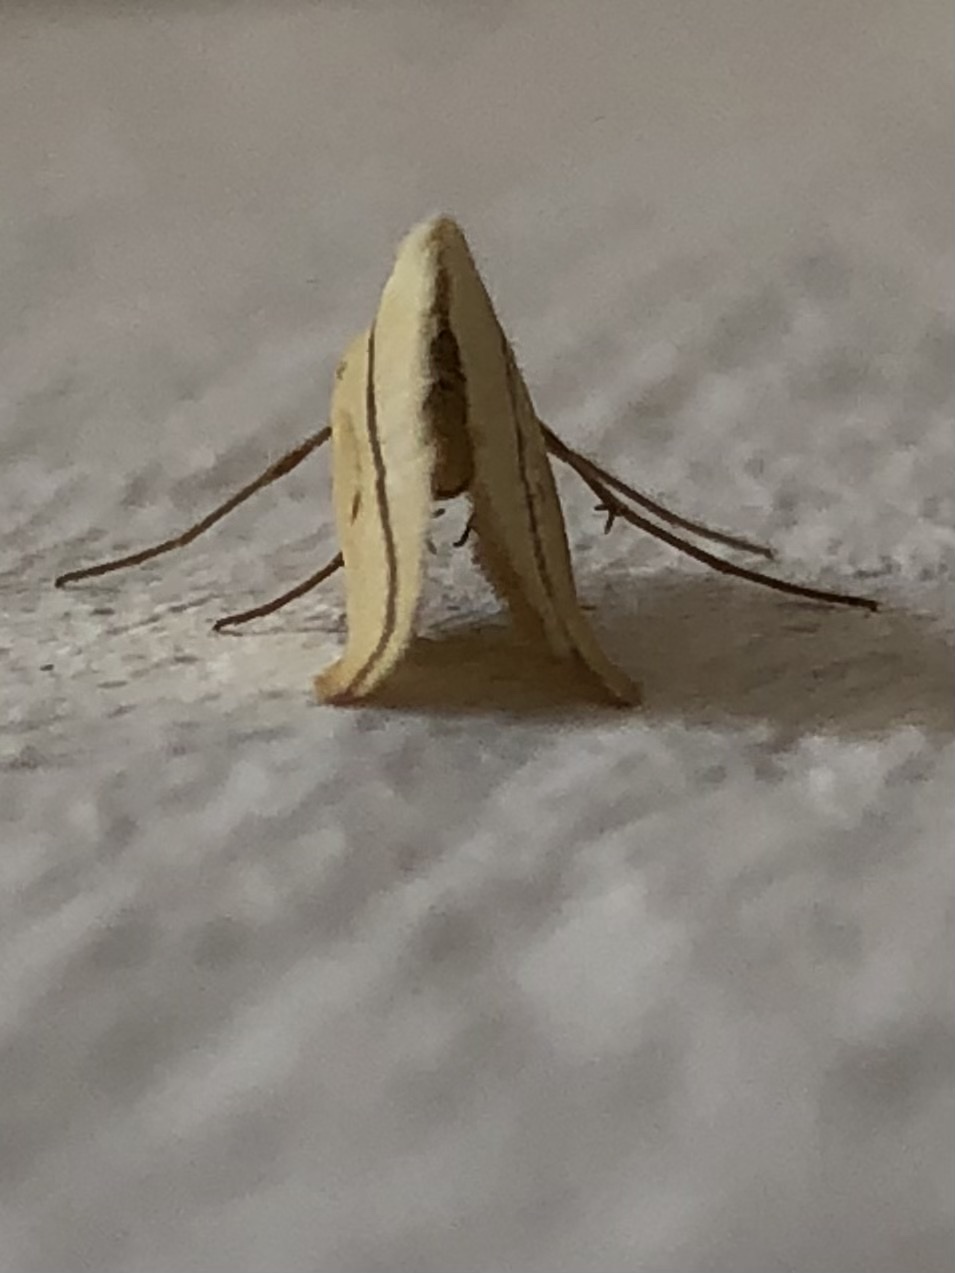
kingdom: Animalia
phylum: Arthropoda
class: Insecta
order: Lepidoptera
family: Geometridae
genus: Rhodometra
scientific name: Rhodometra sacraria
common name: Vestal
